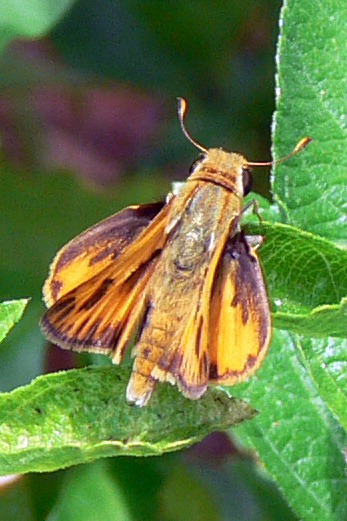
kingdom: Animalia
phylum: Arthropoda
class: Insecta
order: Lepidoptera
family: Hesperiidae
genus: Hylephila
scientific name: Hylephila phyleus
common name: Fiery skipper
